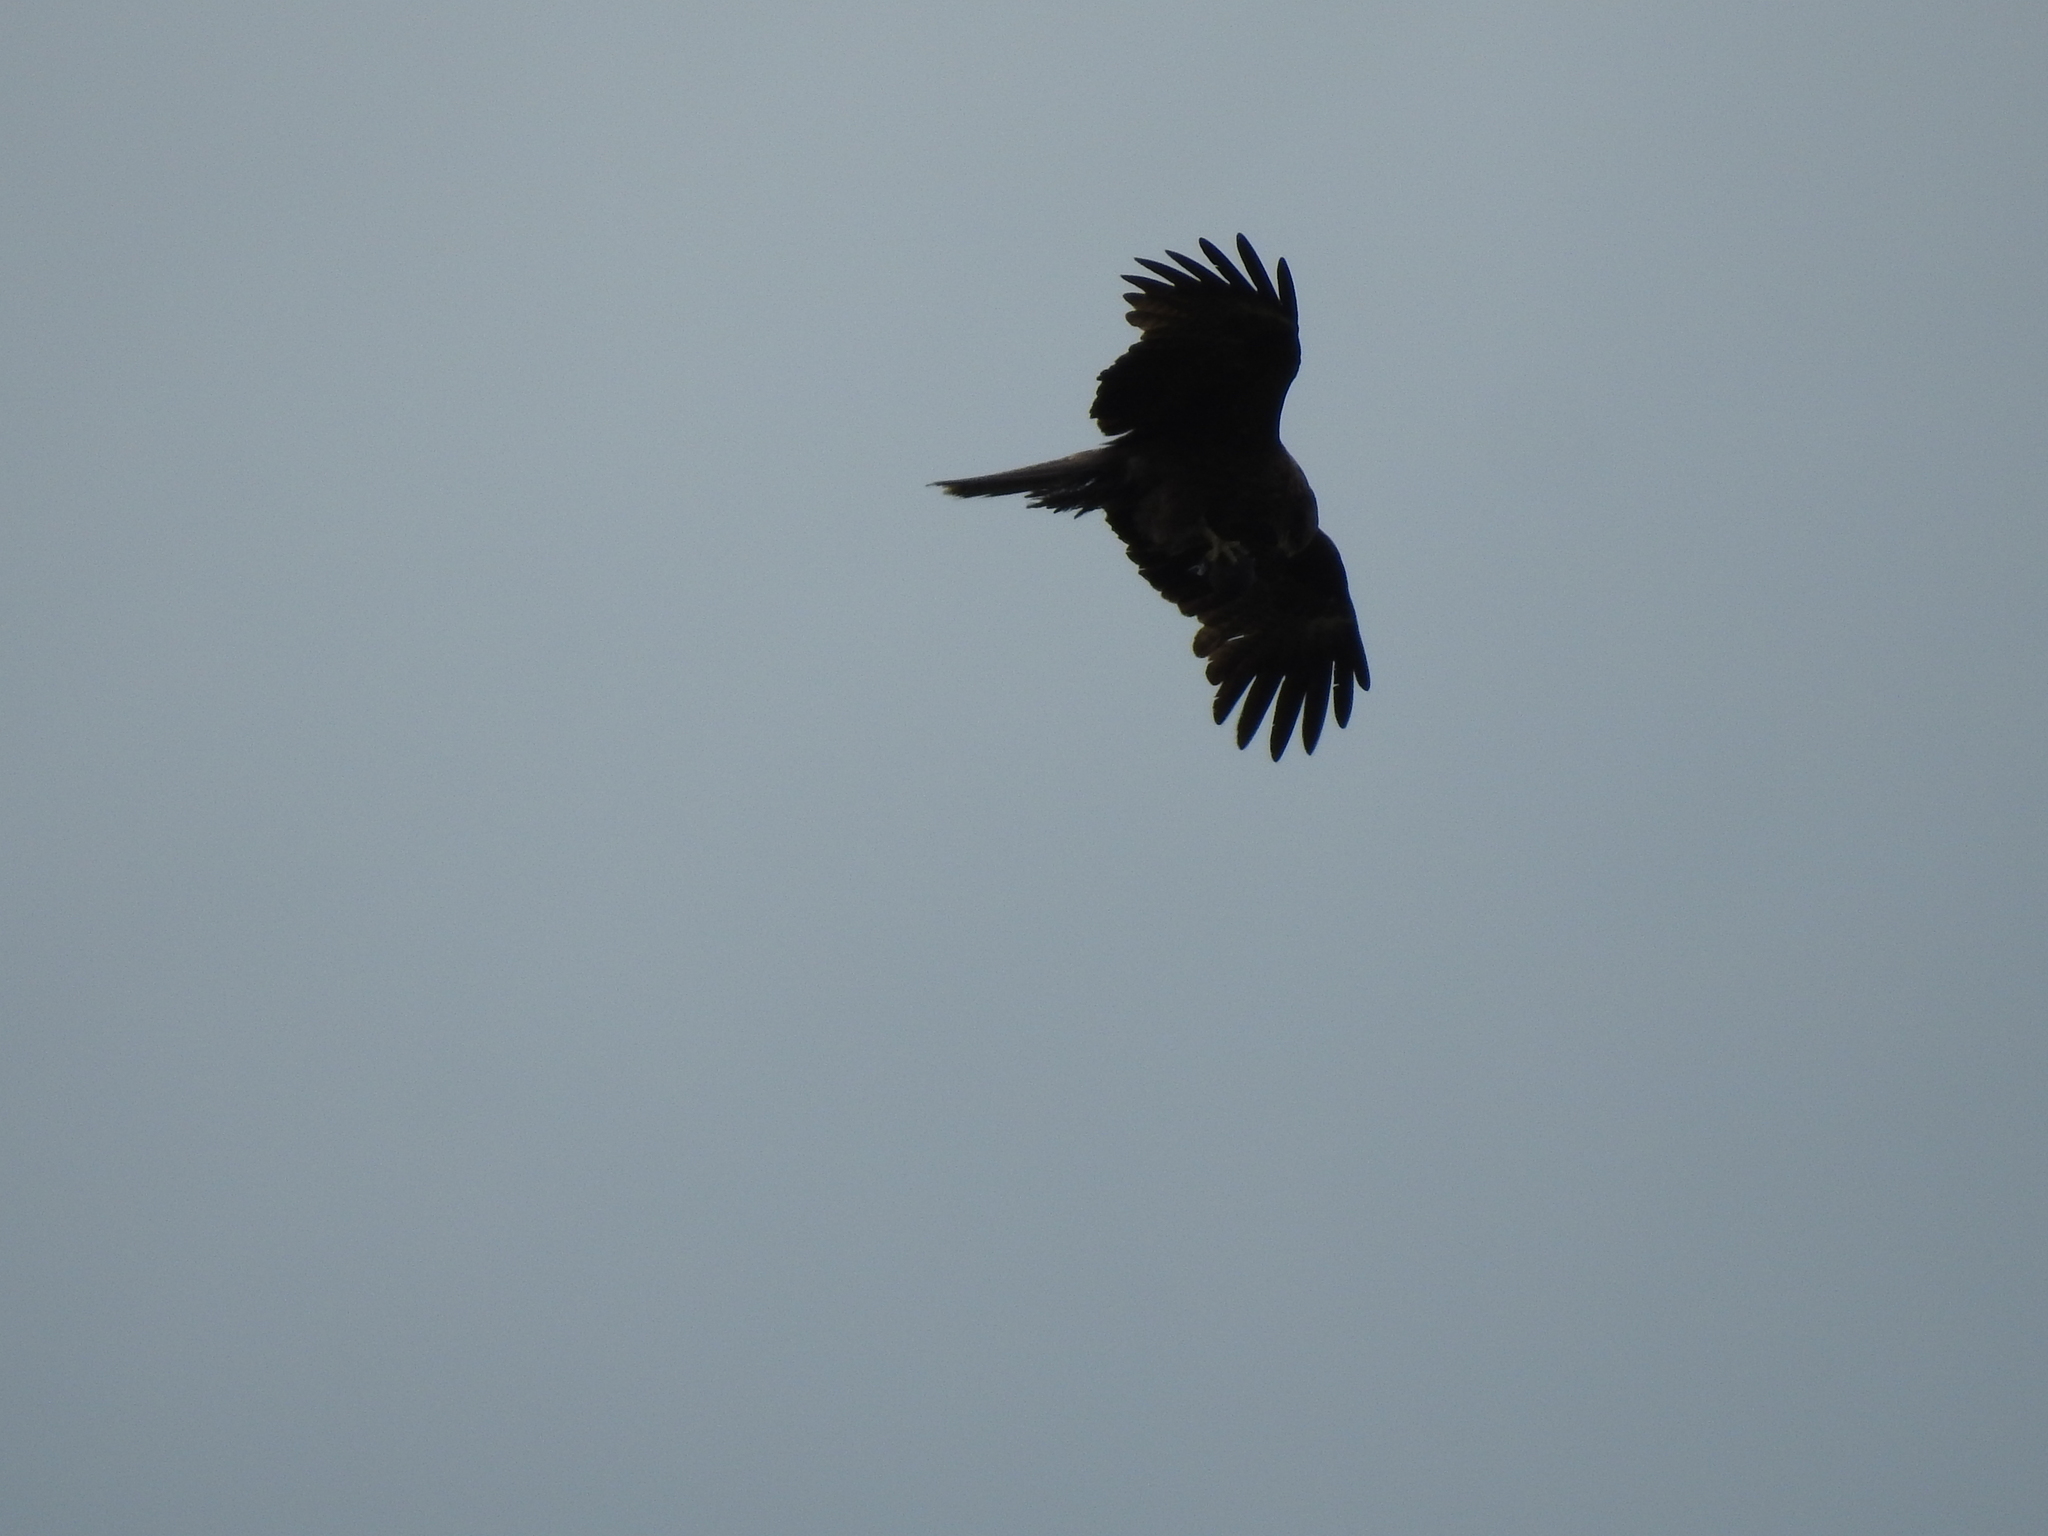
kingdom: Animalia
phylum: Chordata
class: Aves
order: Accipitriformes
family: Accipitridae
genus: Milvus
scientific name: Milvus migrans
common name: Black kite
